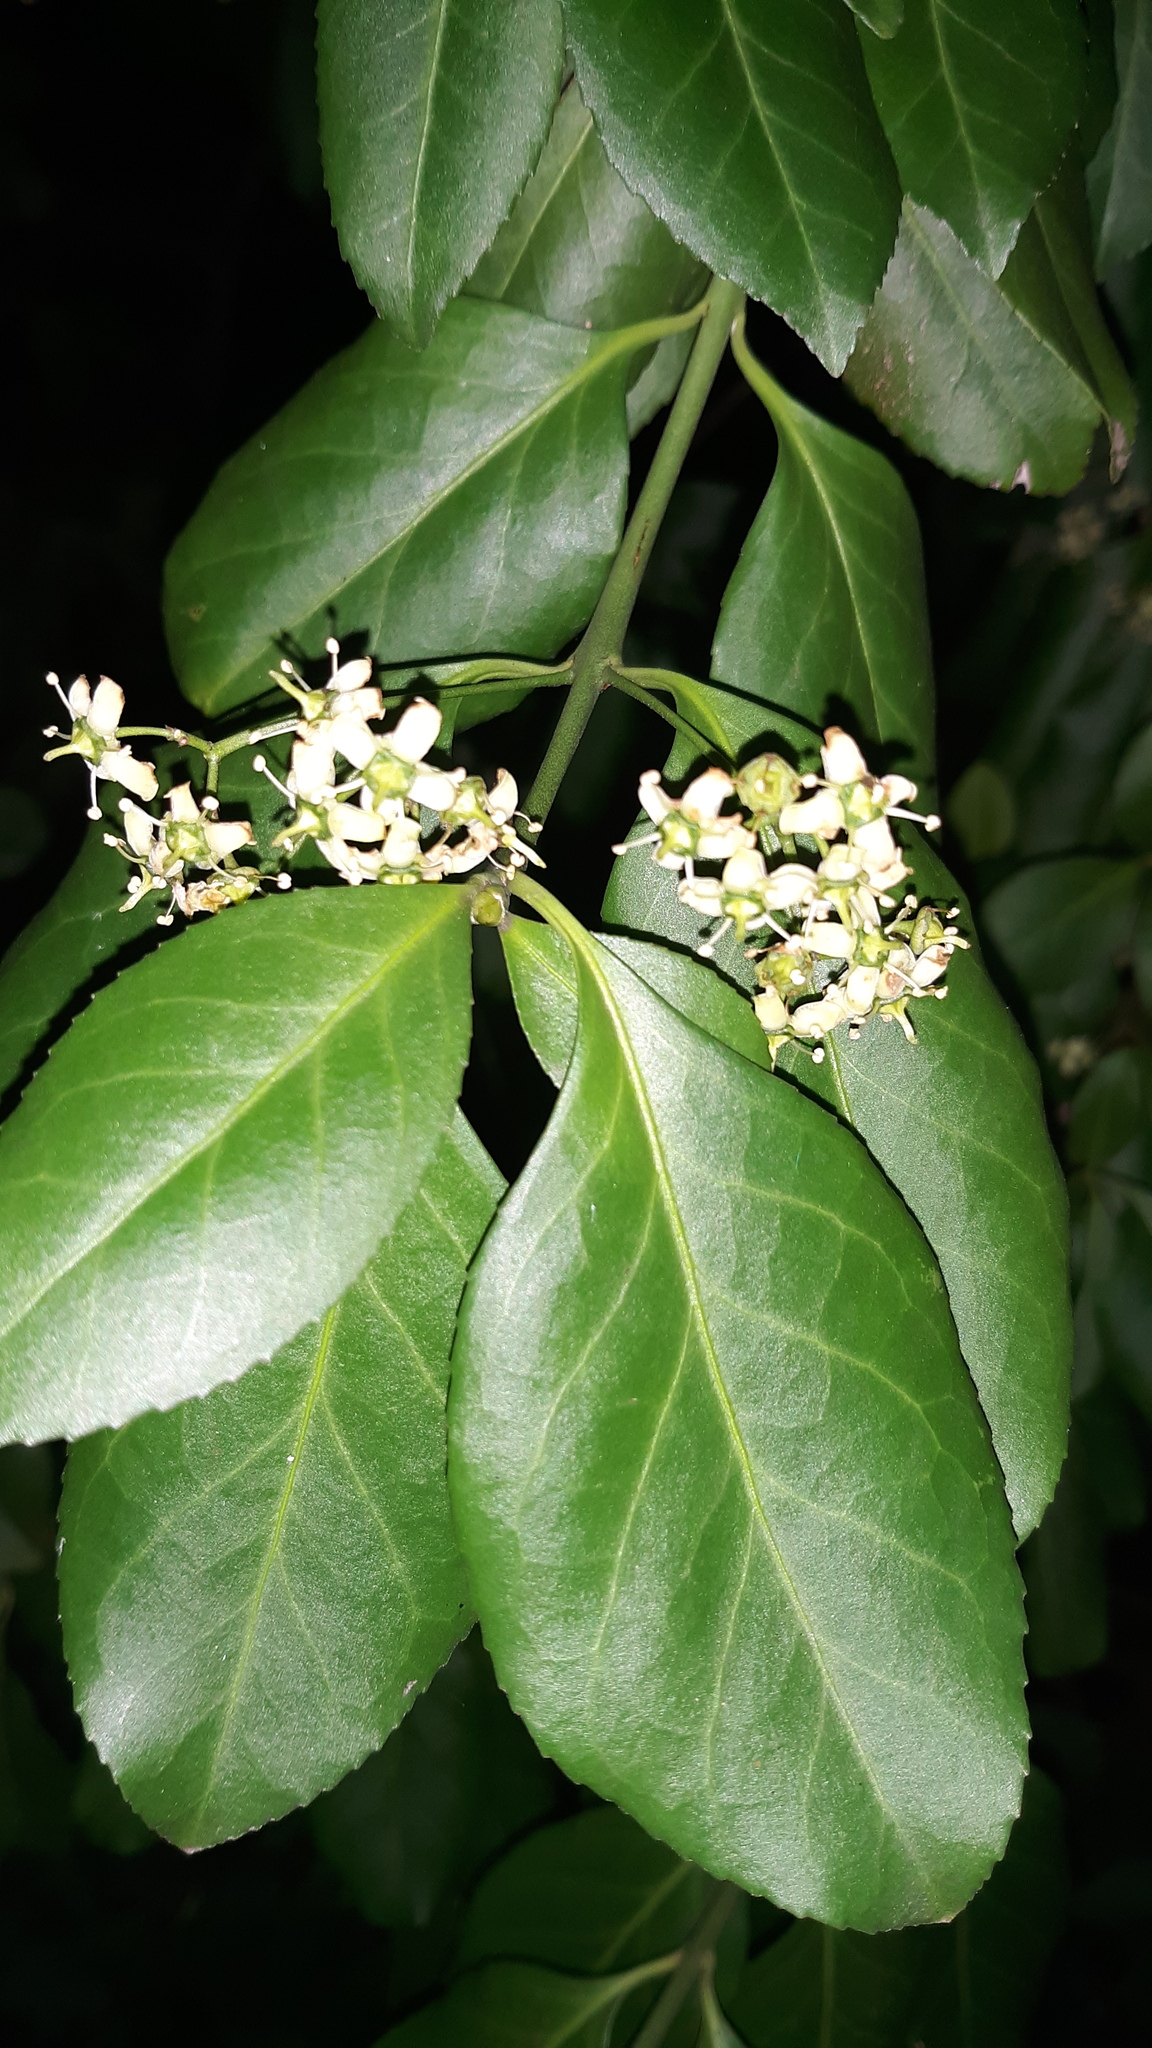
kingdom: Plantae
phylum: Tracheophyta
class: Magnoliopsida
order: Celastrales
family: Celastraceae
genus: Euonymus
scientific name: Euonymus fortunei
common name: Climbing euonymus
